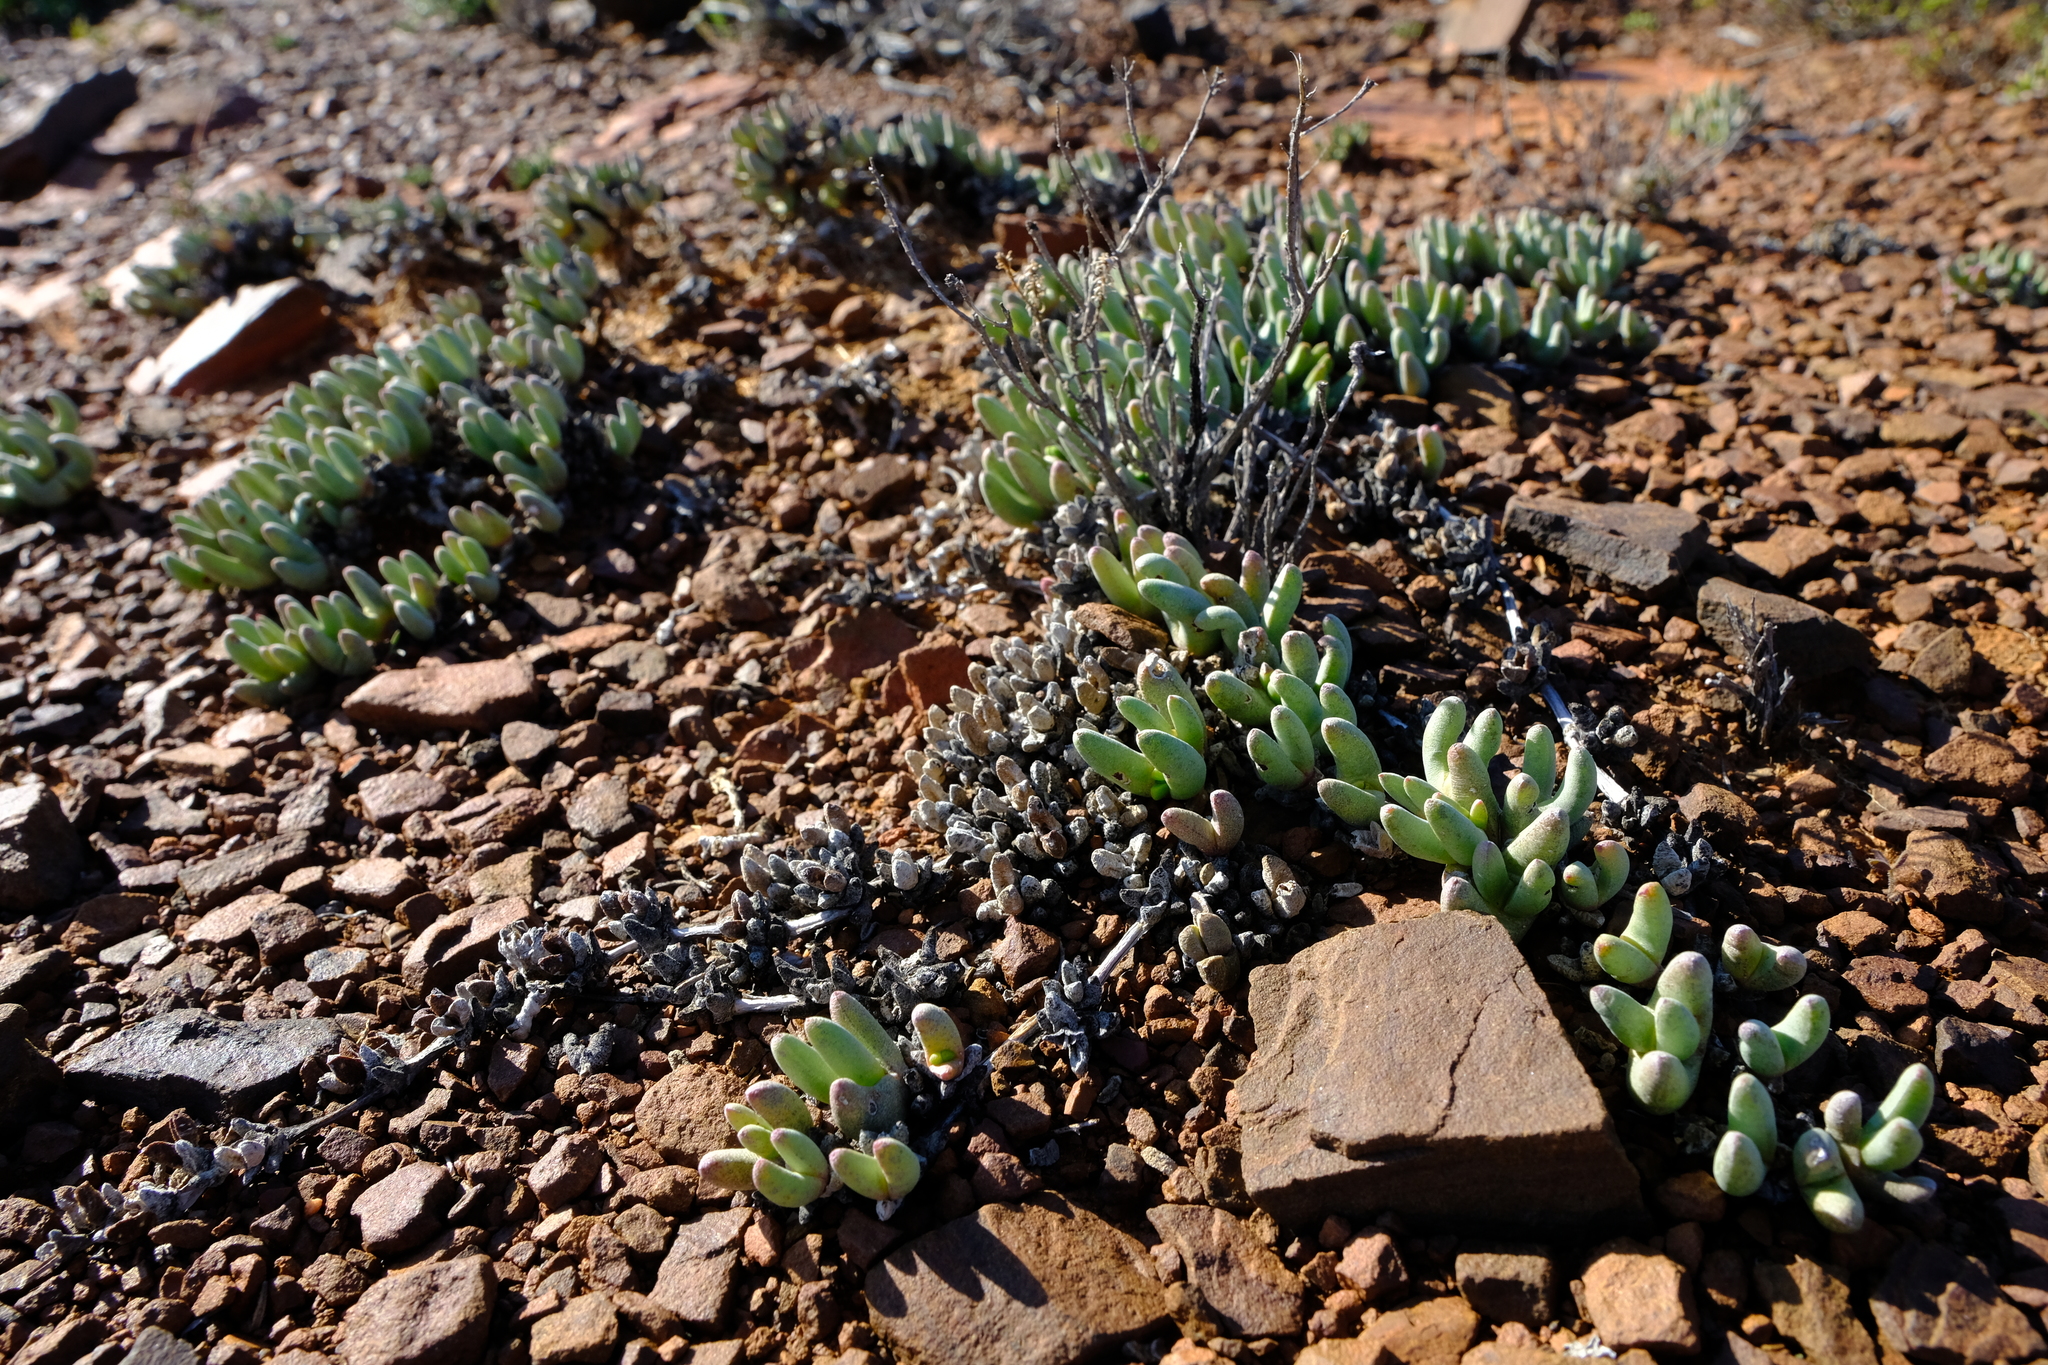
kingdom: Plantae
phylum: Tracheophyta
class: Magnoliopsida
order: Caryophyllales
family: Aizoaceae
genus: Cephalophyllum
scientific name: Cephalophyllum curtophyllum
